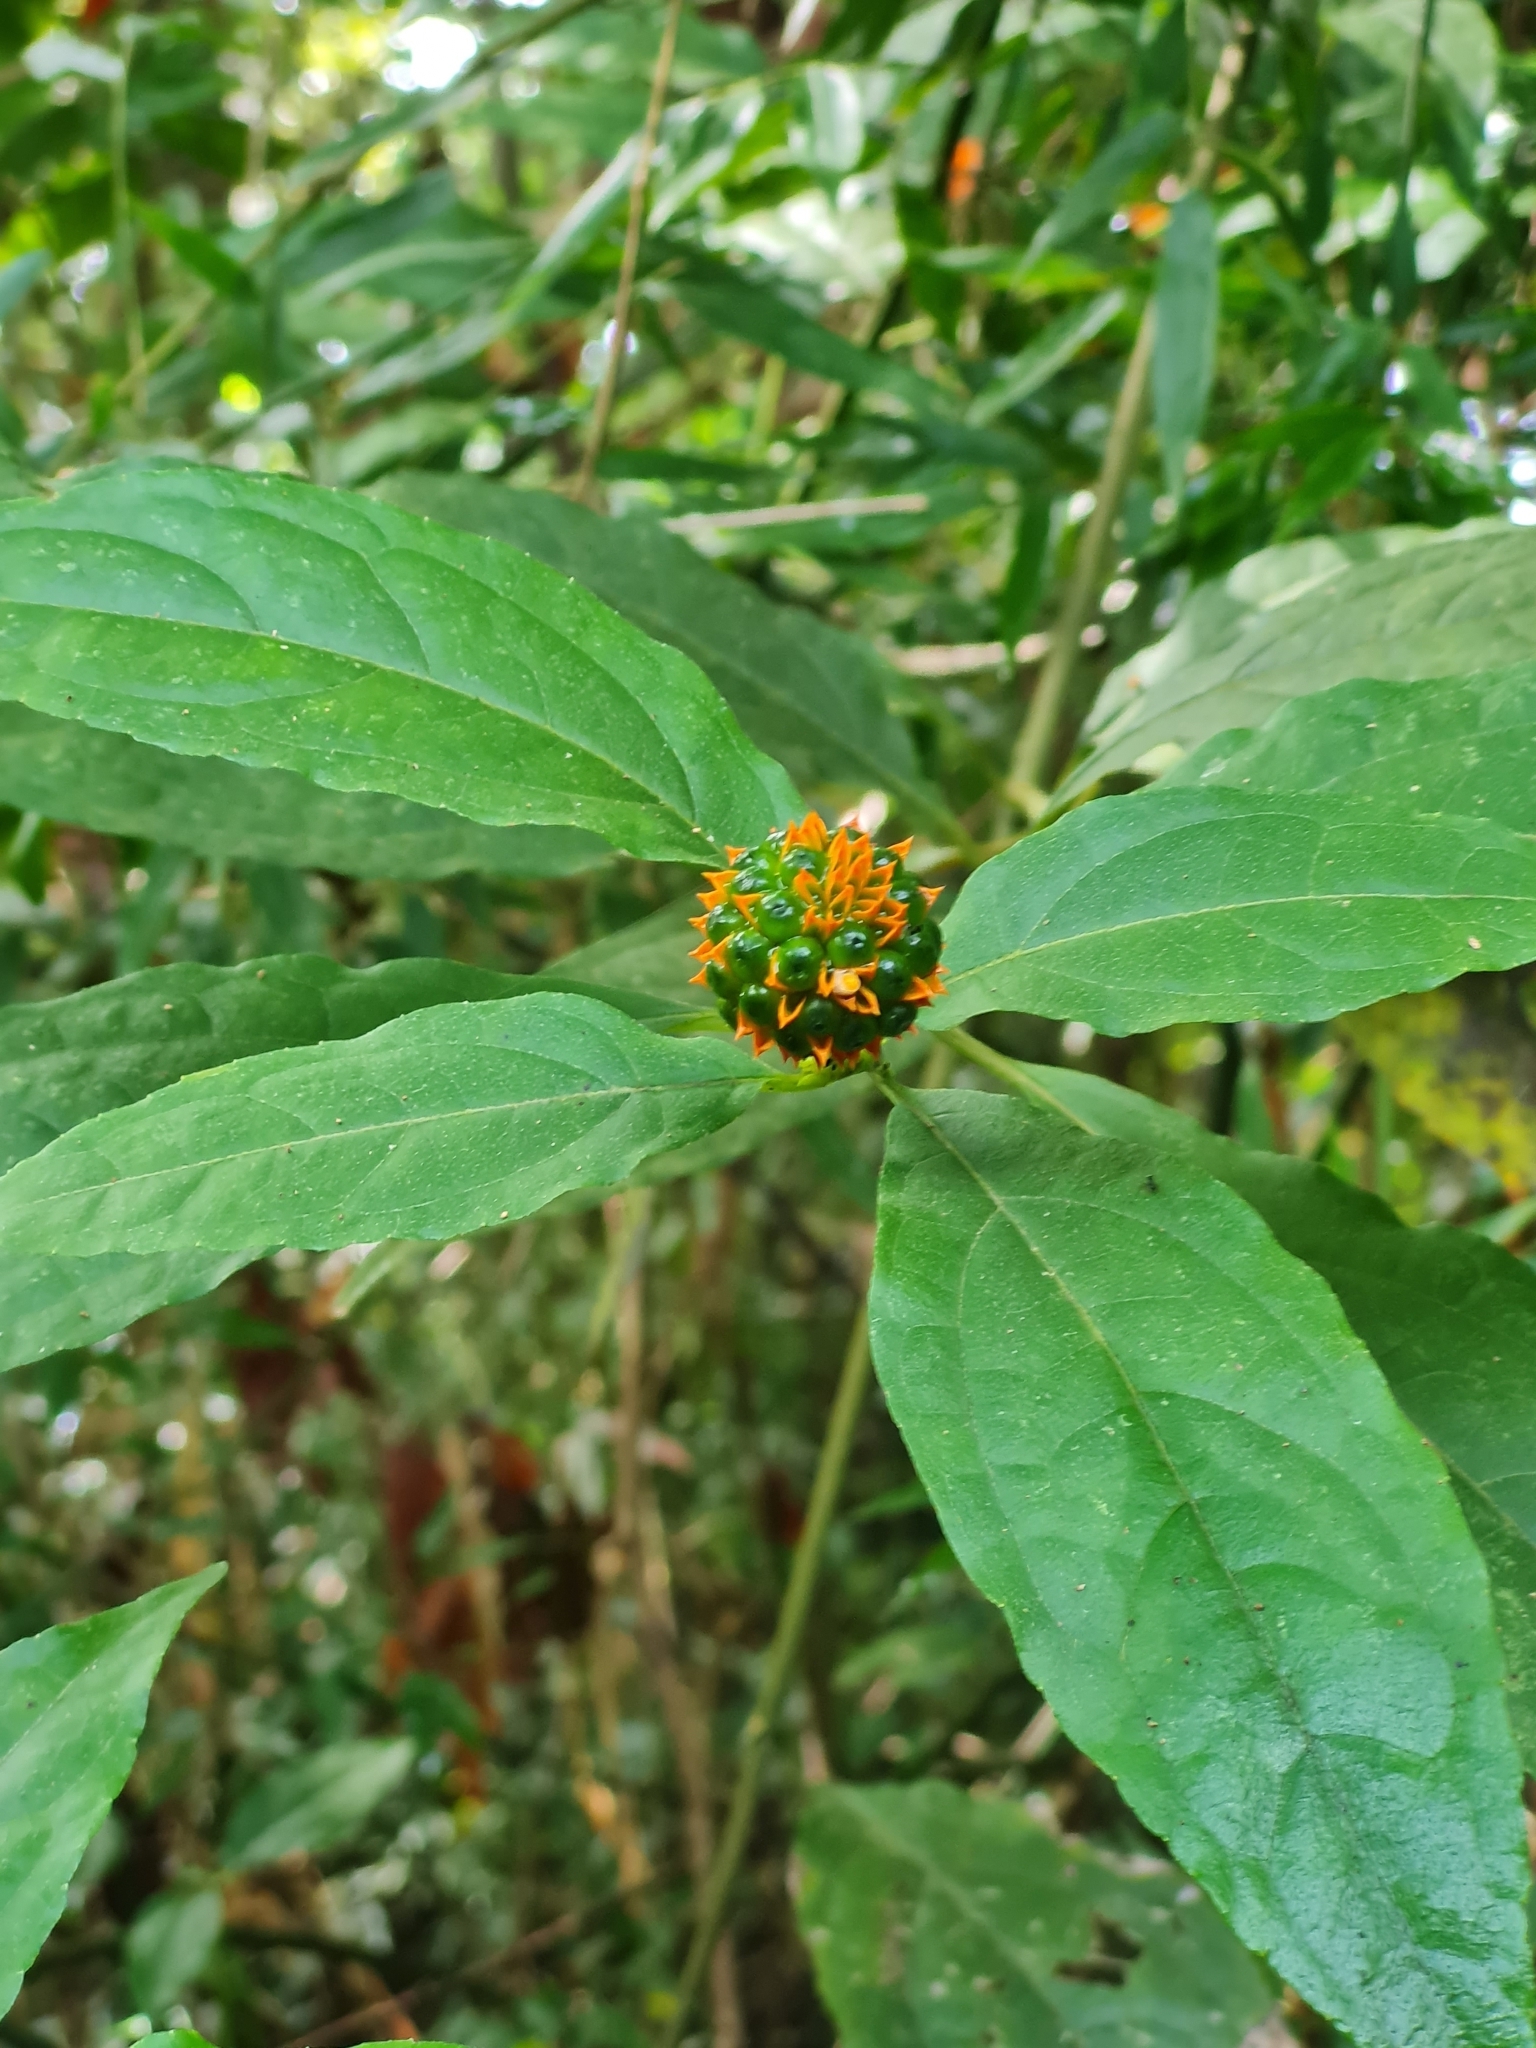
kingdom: Plantae
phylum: Tracheophyta
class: Magnoliopsida
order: Asterales
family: Asteraceae
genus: Tilesia
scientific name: Tilesia baccata
